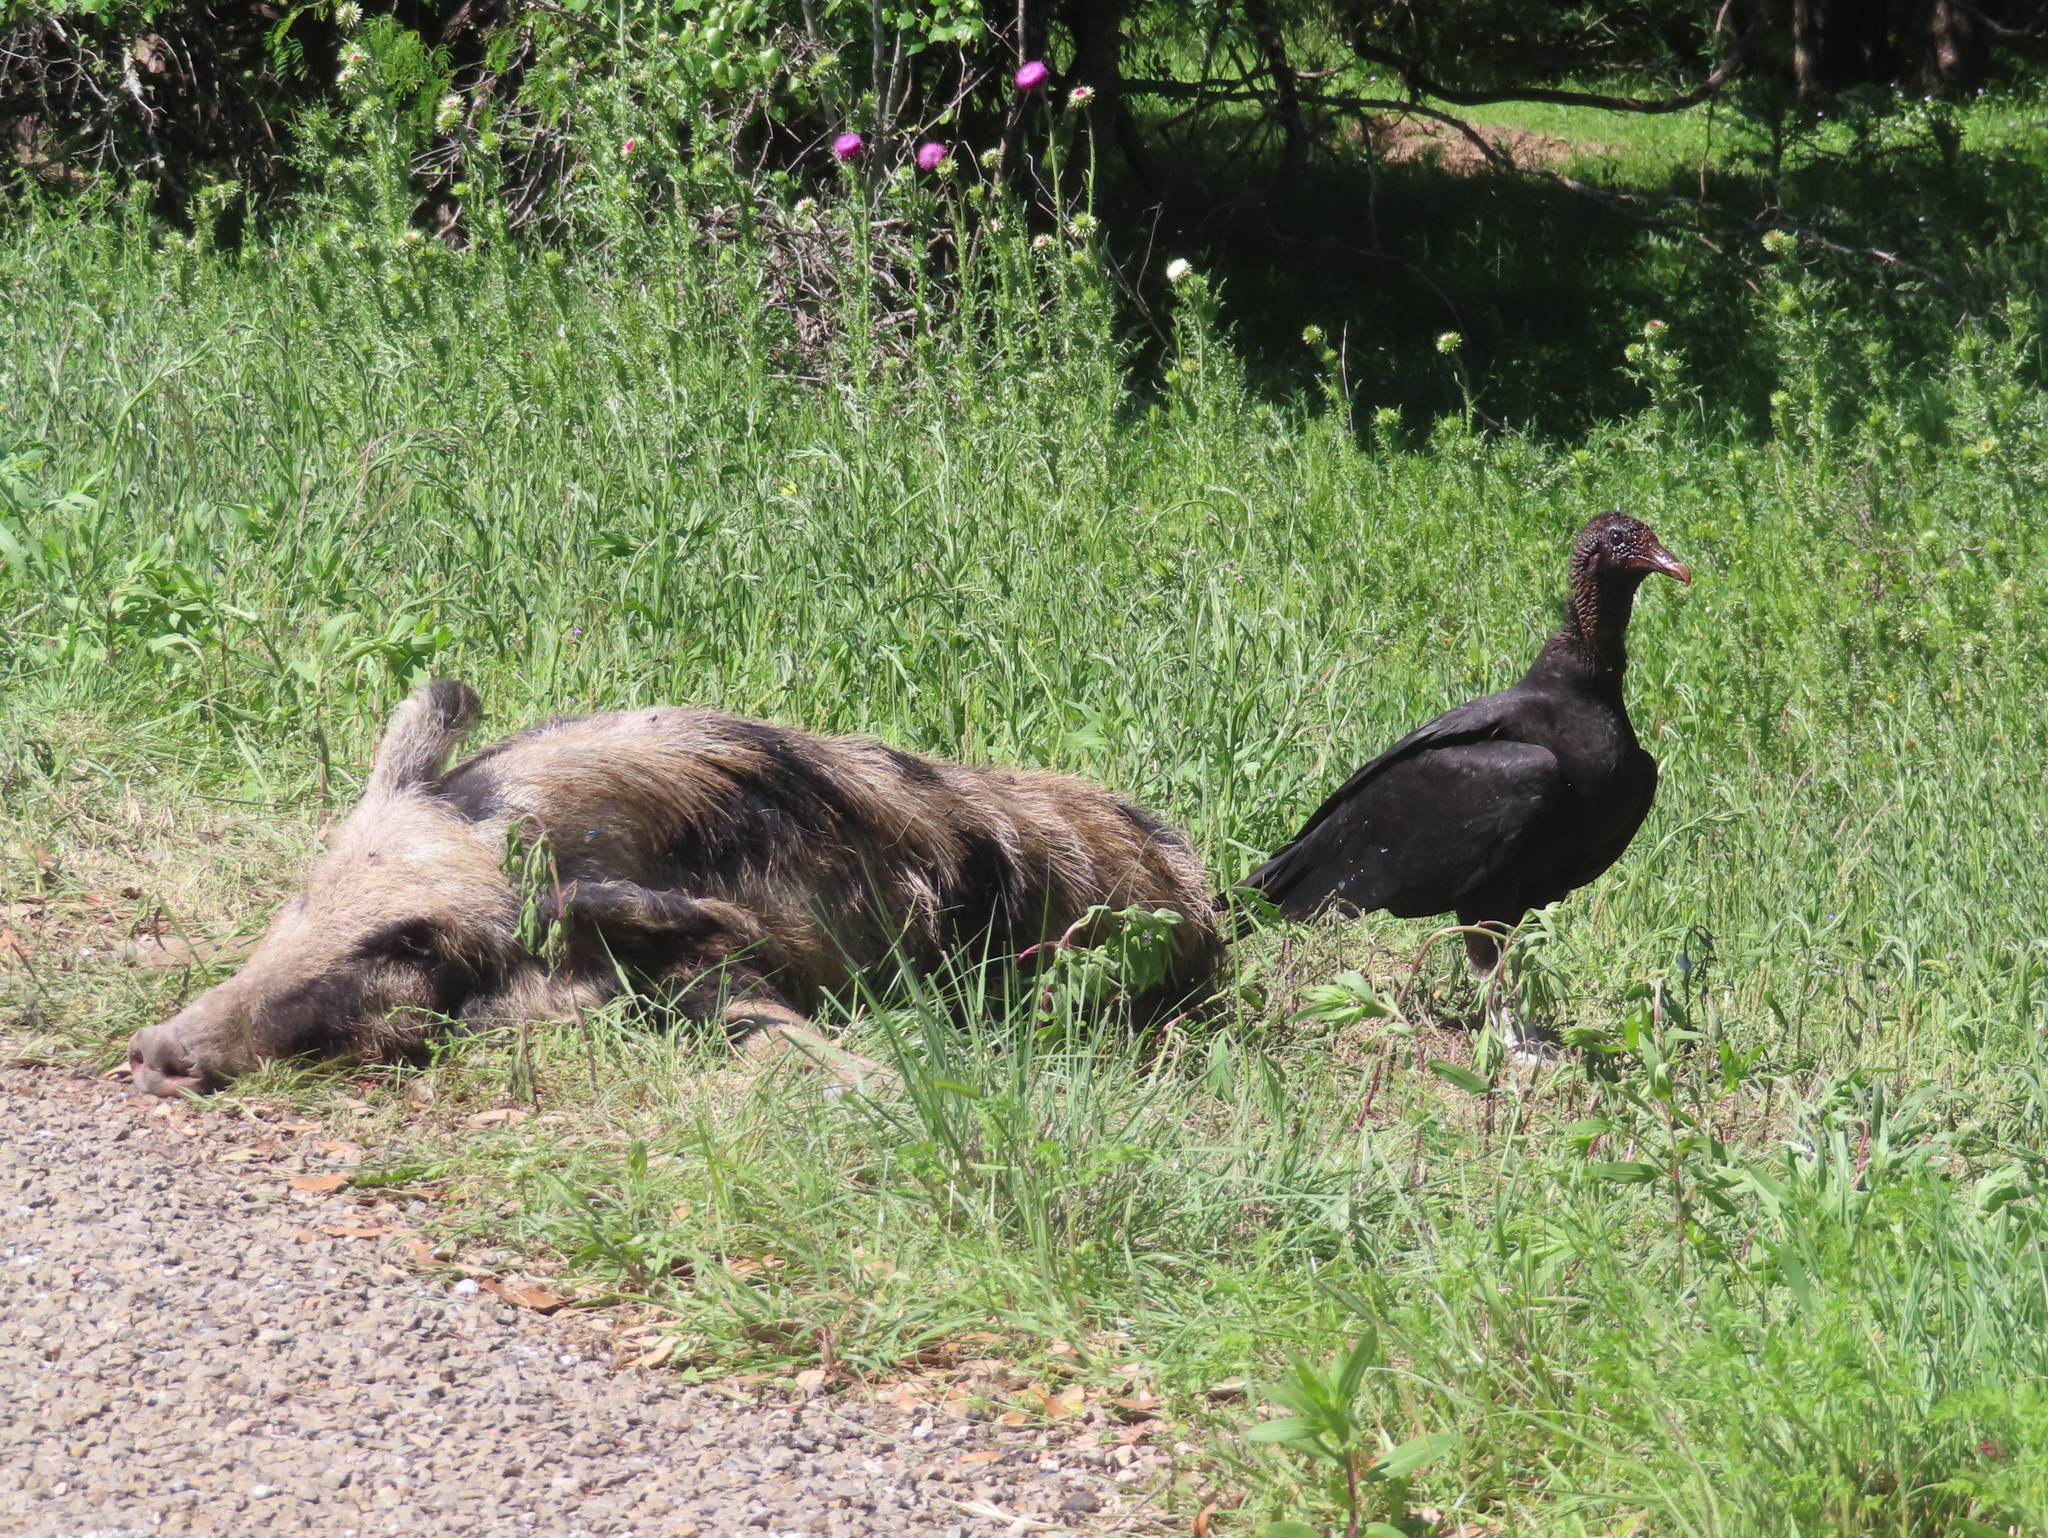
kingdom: Animalia
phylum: Chordata
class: Aves
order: Accipitriformes
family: Cathartidae
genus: Coragyps
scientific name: Coragyps atratus
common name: Black vulture
